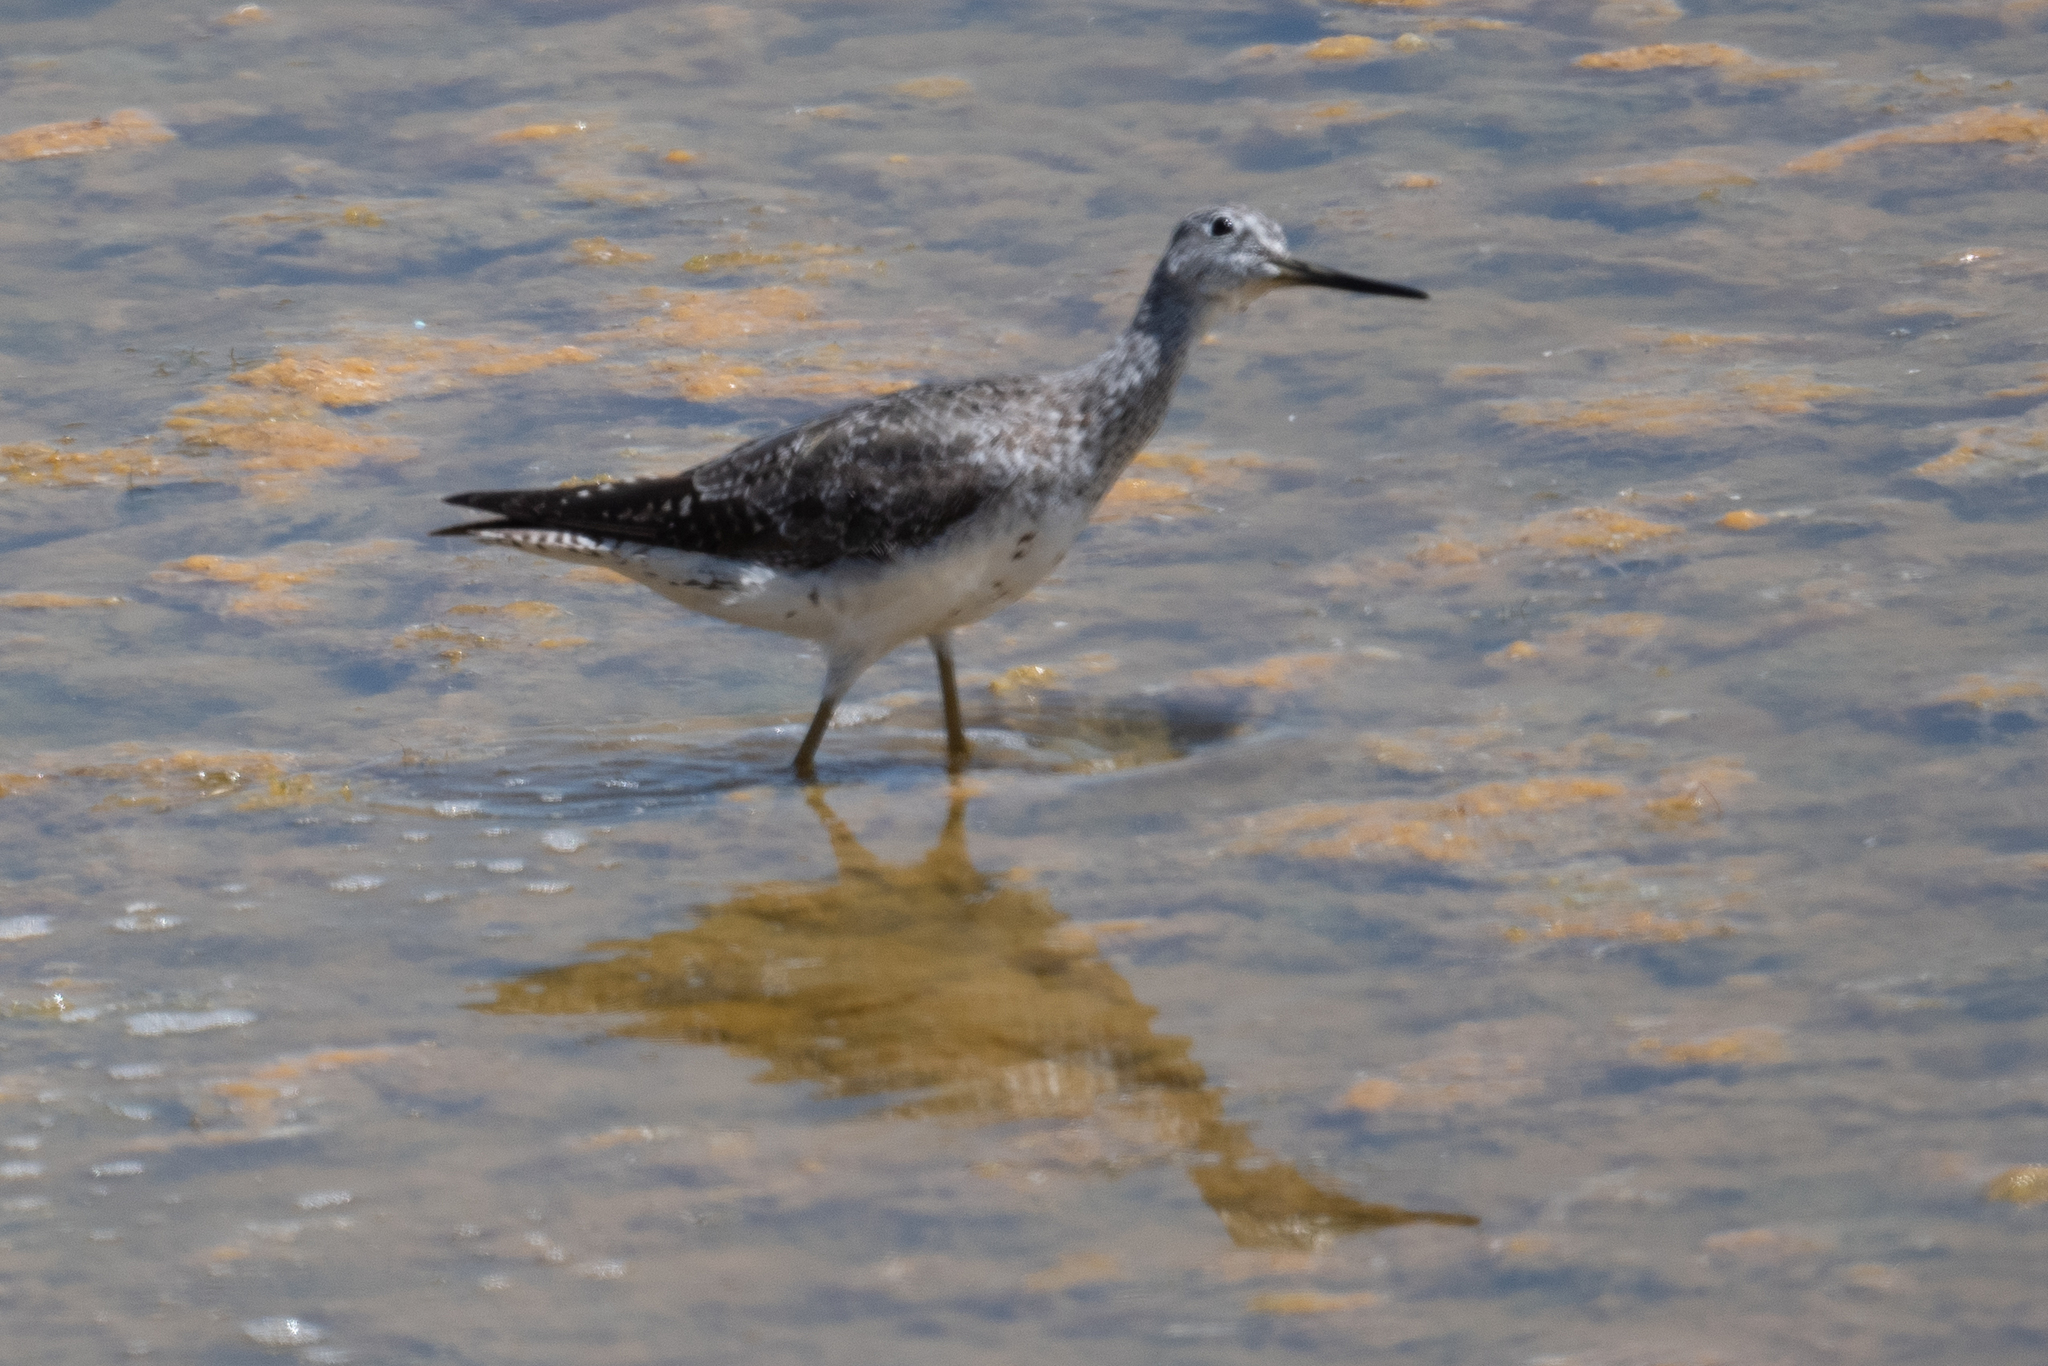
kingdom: Animalia
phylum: Chordata
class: Aves
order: Charadriiformes
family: Scolopacidae
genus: Tringa
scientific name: Tringa melanoleuca
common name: Greater yellowlegs
